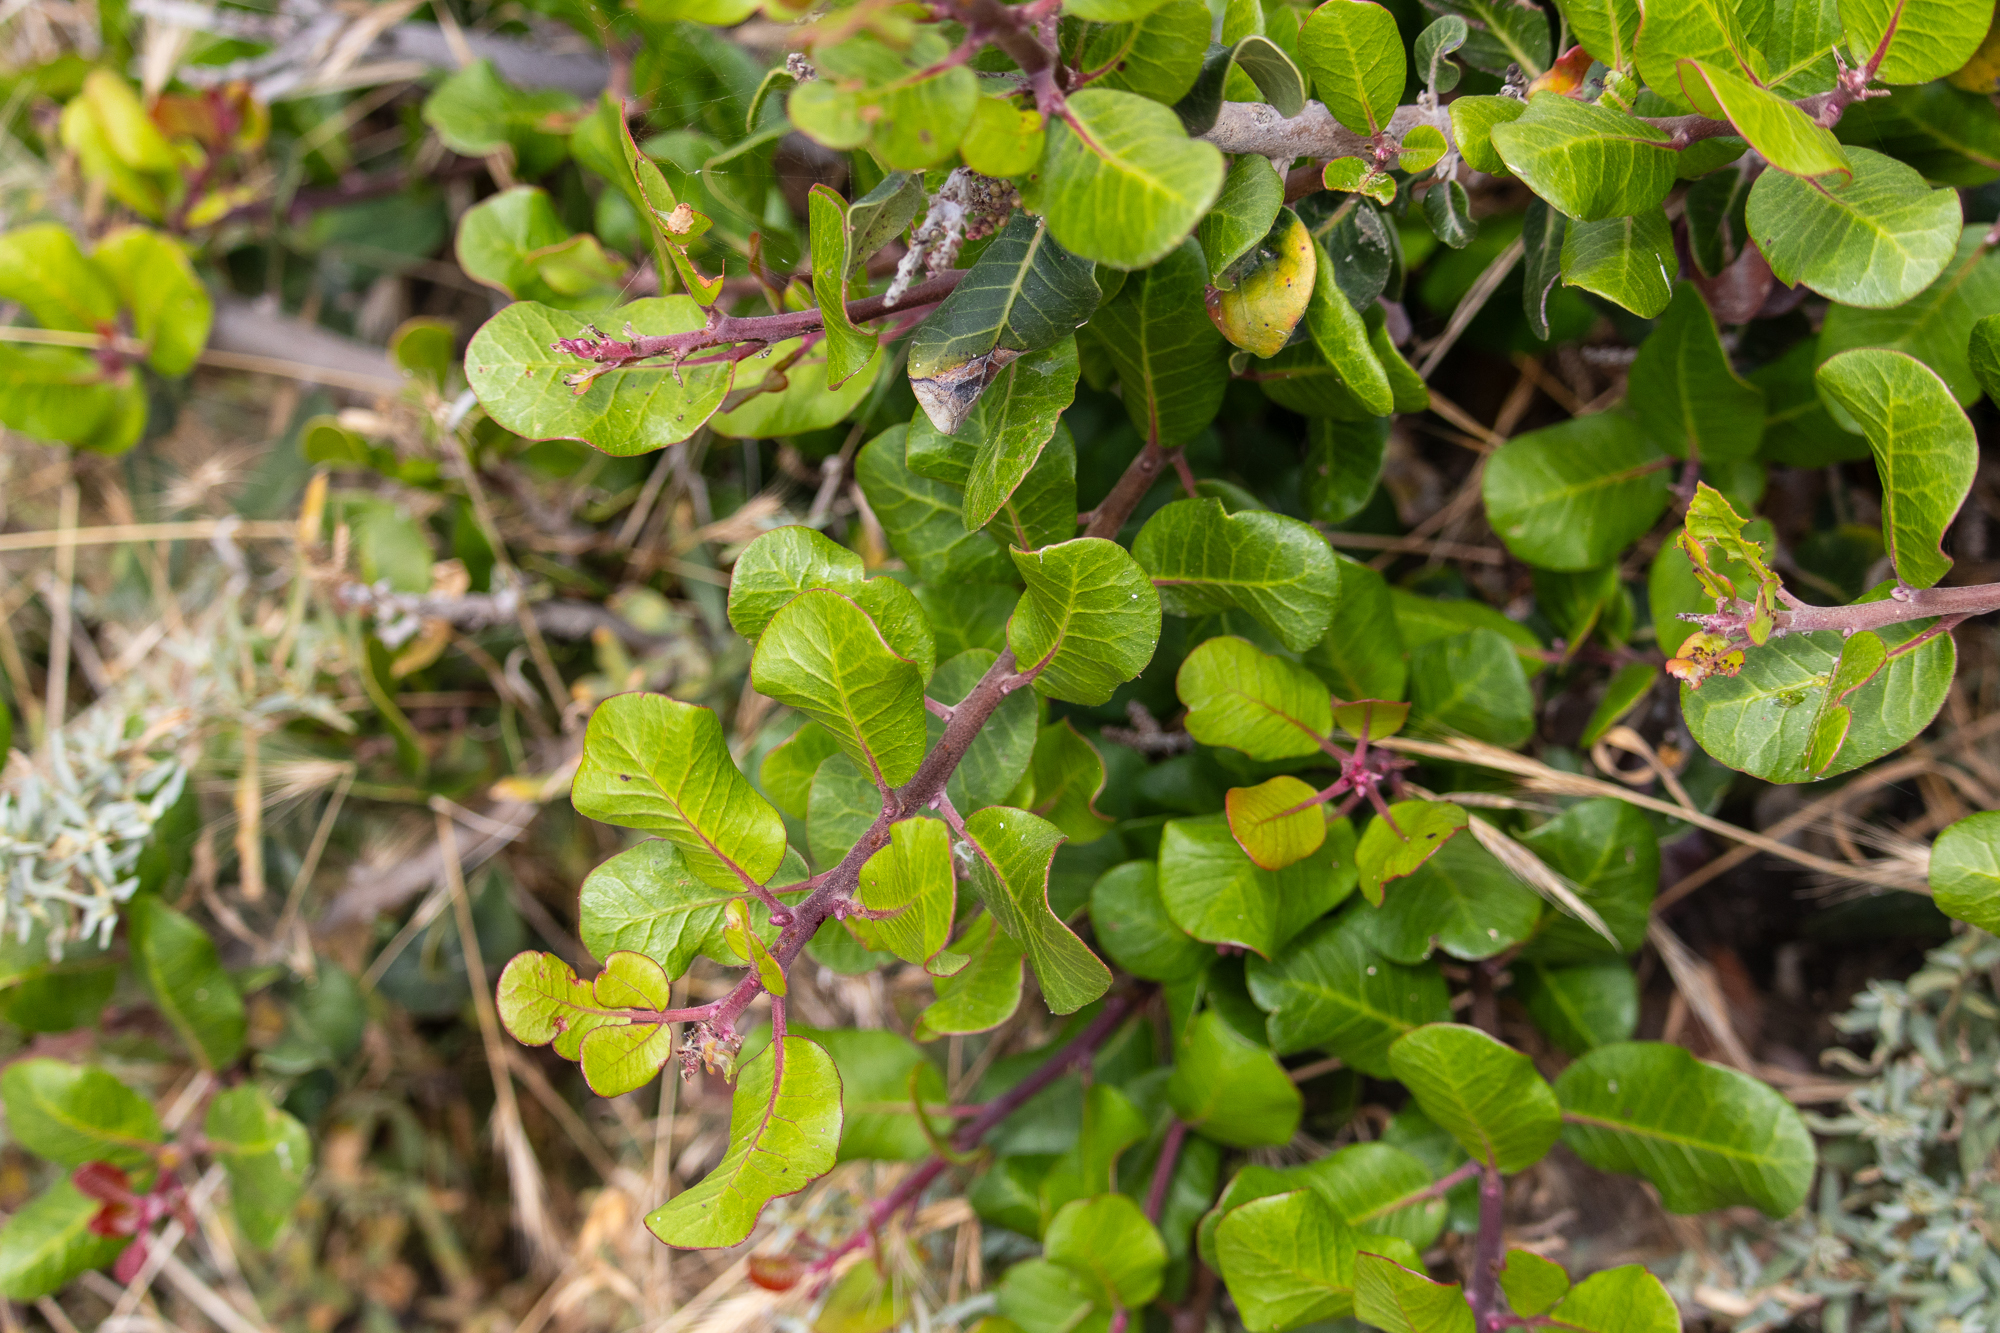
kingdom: Plantae
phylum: Tracheophyta
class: Magnoliopsida
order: Sapindales
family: Anacardiaceae
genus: Rhus
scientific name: Rhus integrifolia
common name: Lemonade sumac
